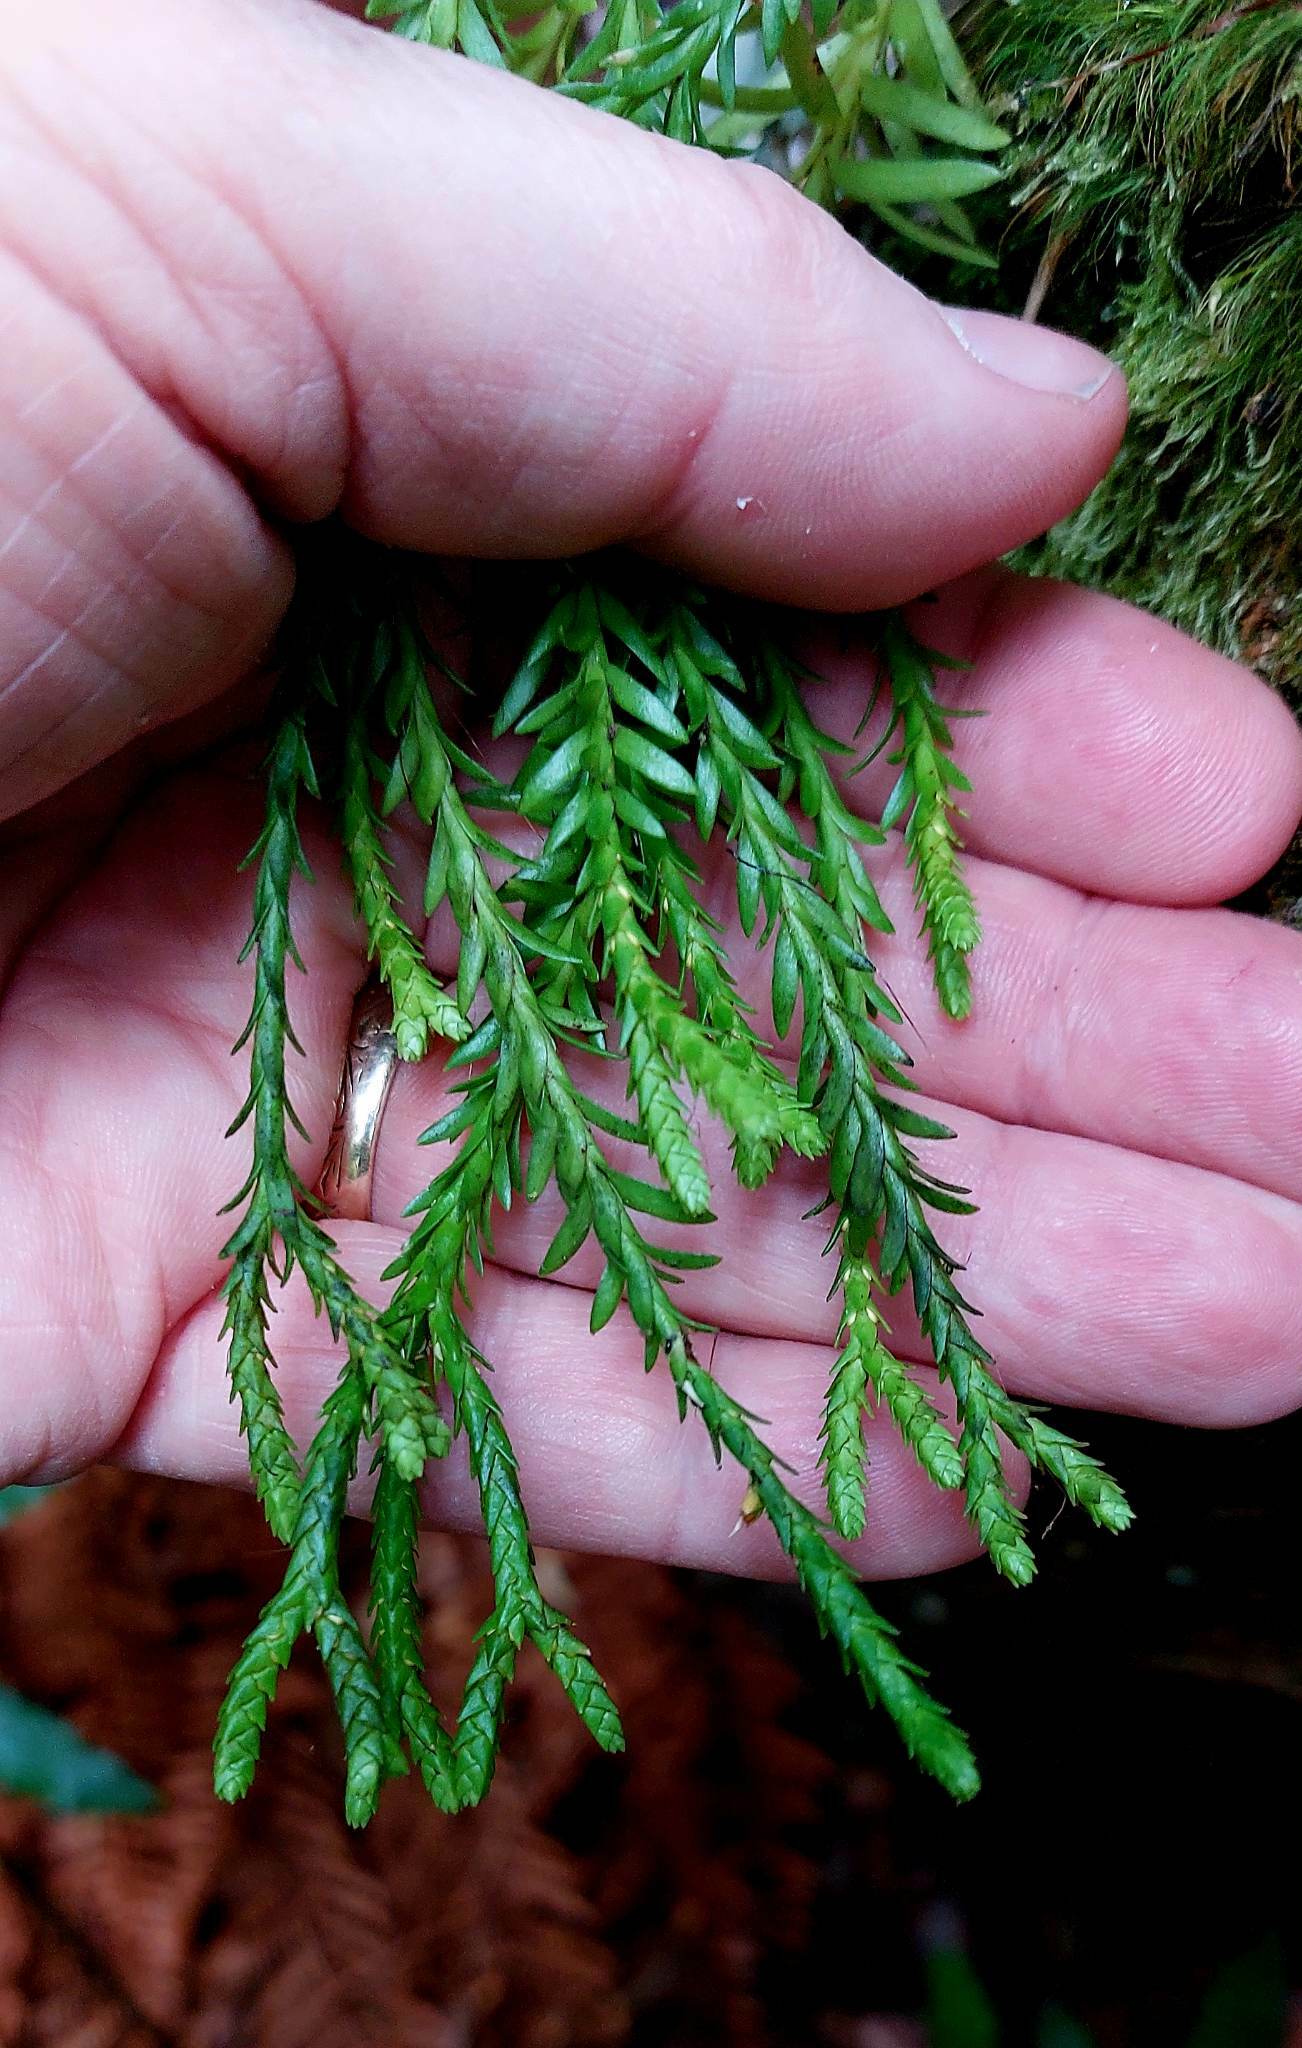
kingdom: Plantae
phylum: Tracheophyta
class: Lycopodiopsida
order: Lycopodiales
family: Lycopodiaceae
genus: Phlegmariurus
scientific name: Phlegmariurus billardierei
